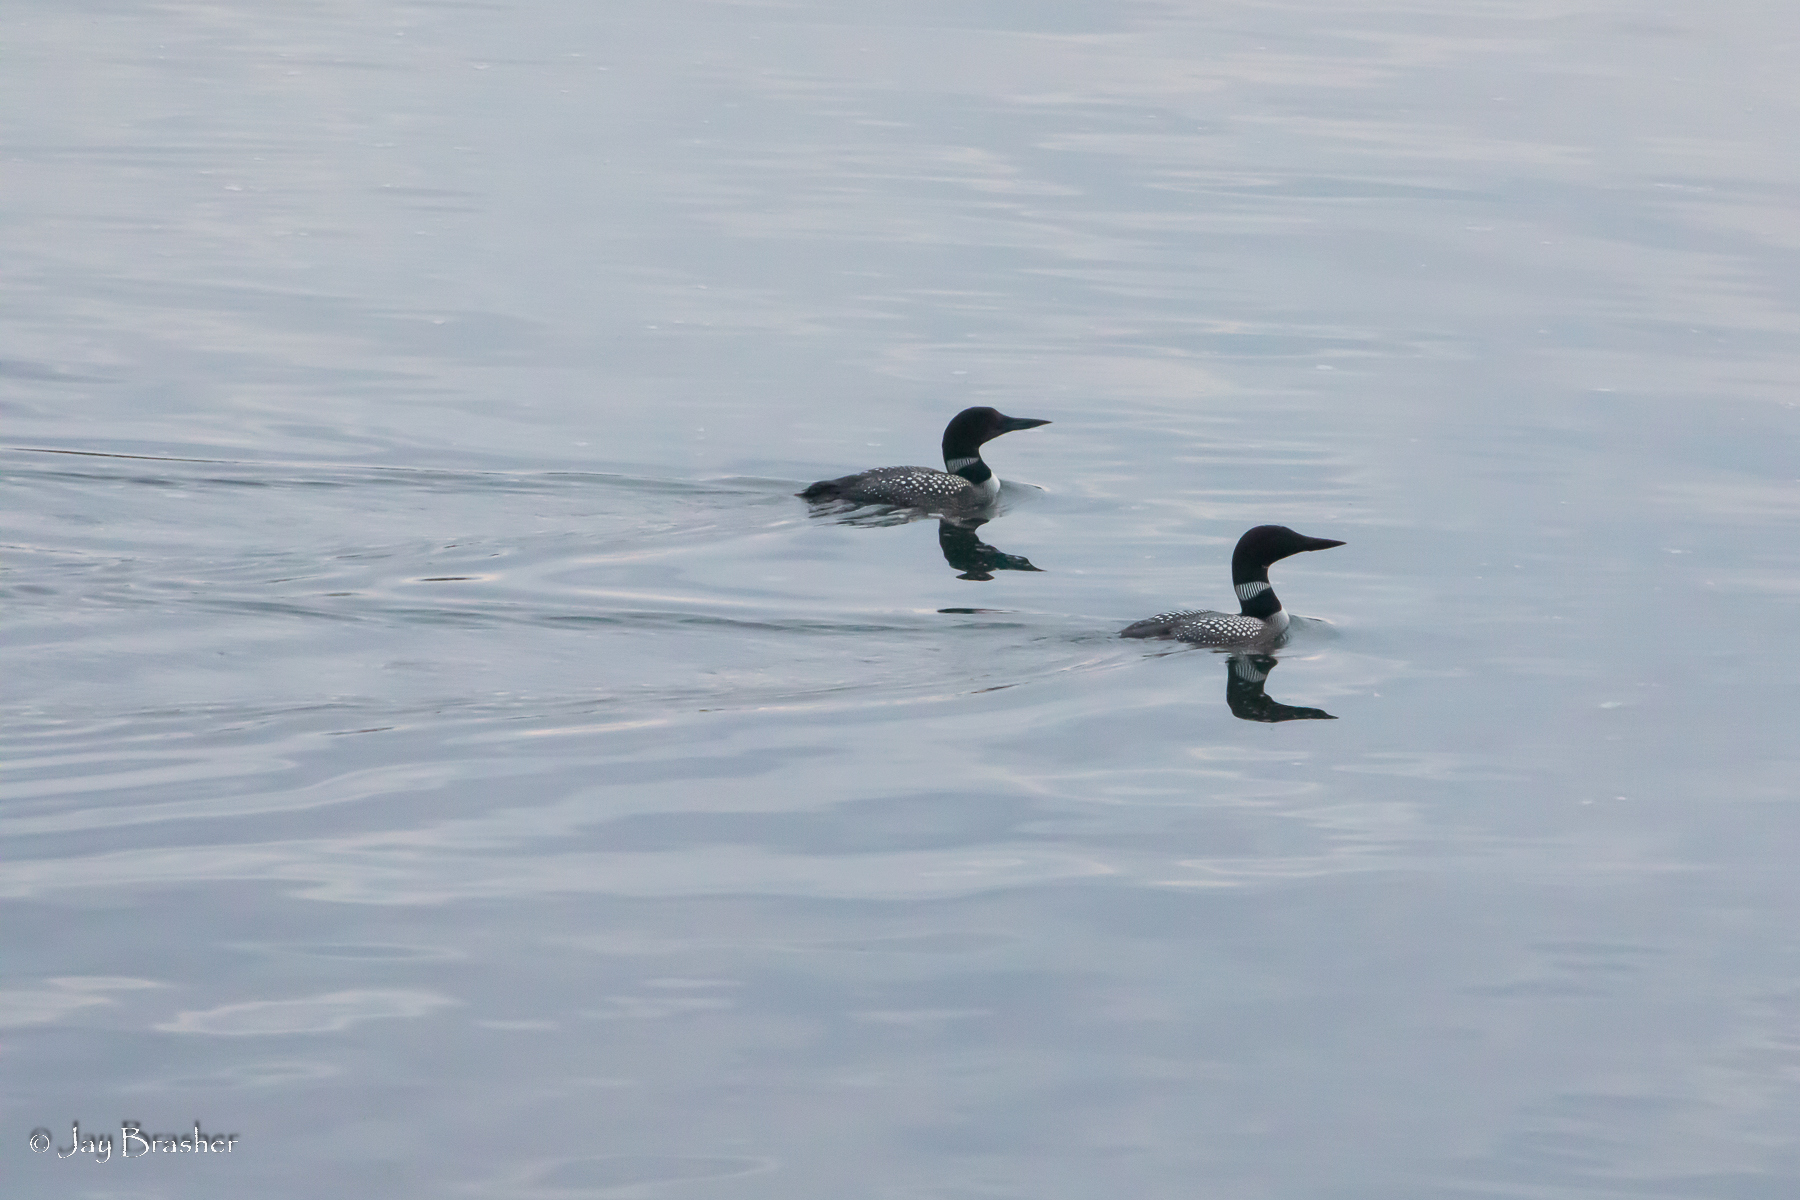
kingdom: Animalia
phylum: Chordata
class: Aves
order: Gaviiformes
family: Gaviidae
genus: Gavia
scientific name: Gavia immer
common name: Common loon
